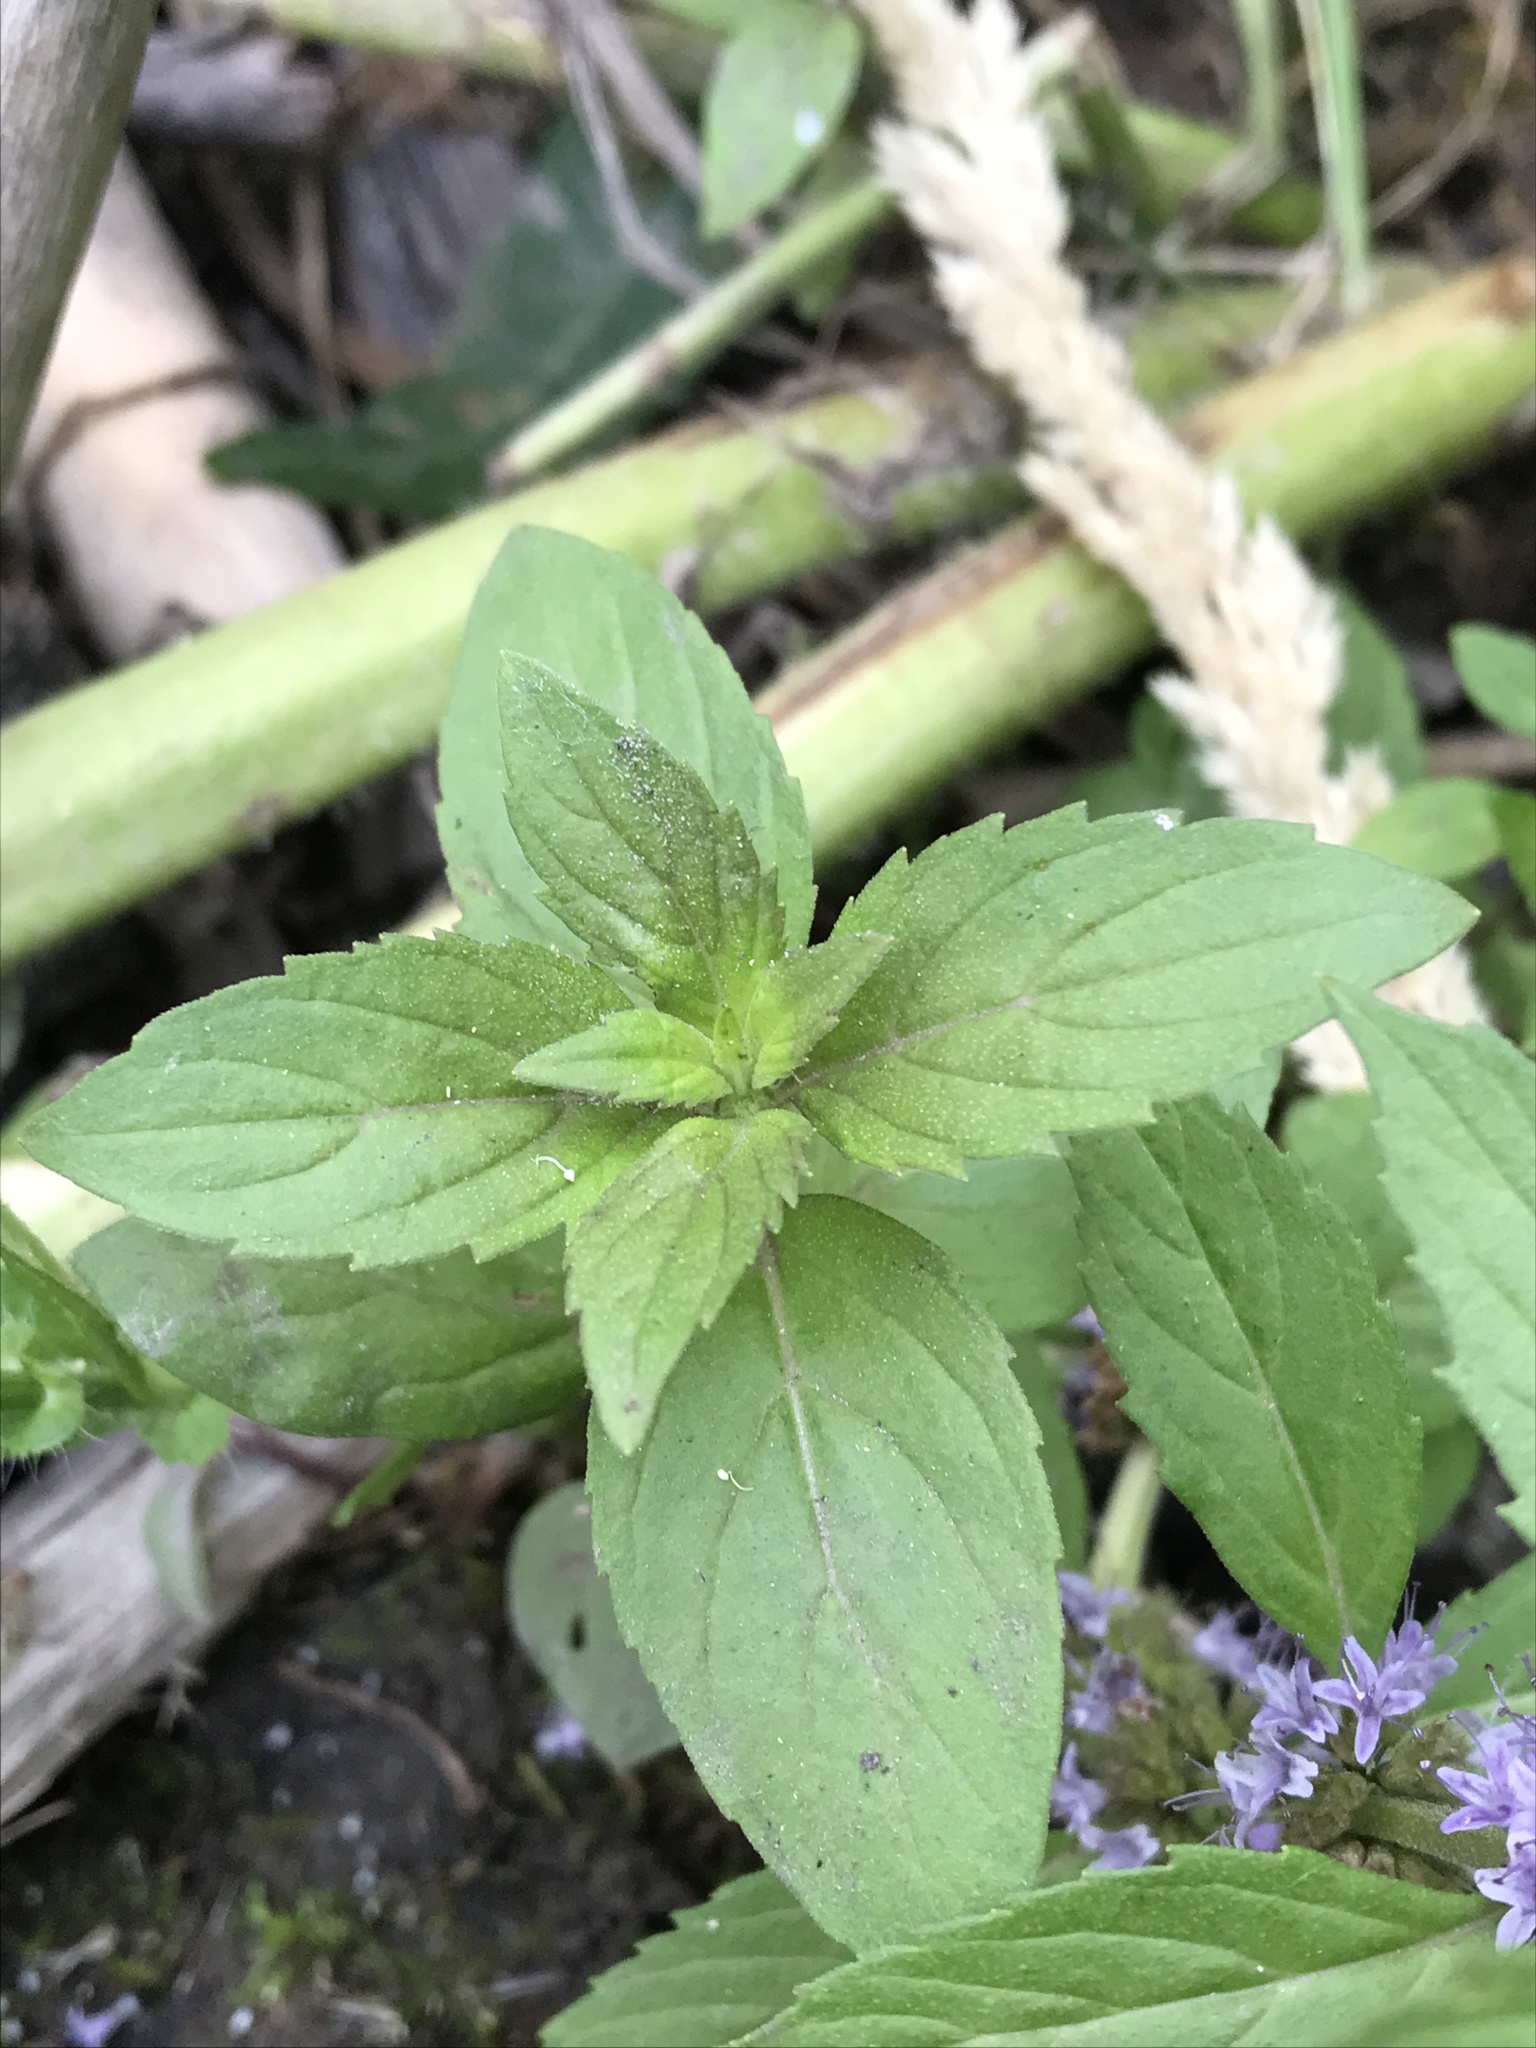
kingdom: Plantae
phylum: Tracheophyta
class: Magnoliopsida
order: Lamiales
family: Lamiaceae
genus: Mentha
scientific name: Mentha canadensis
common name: American corn mint
